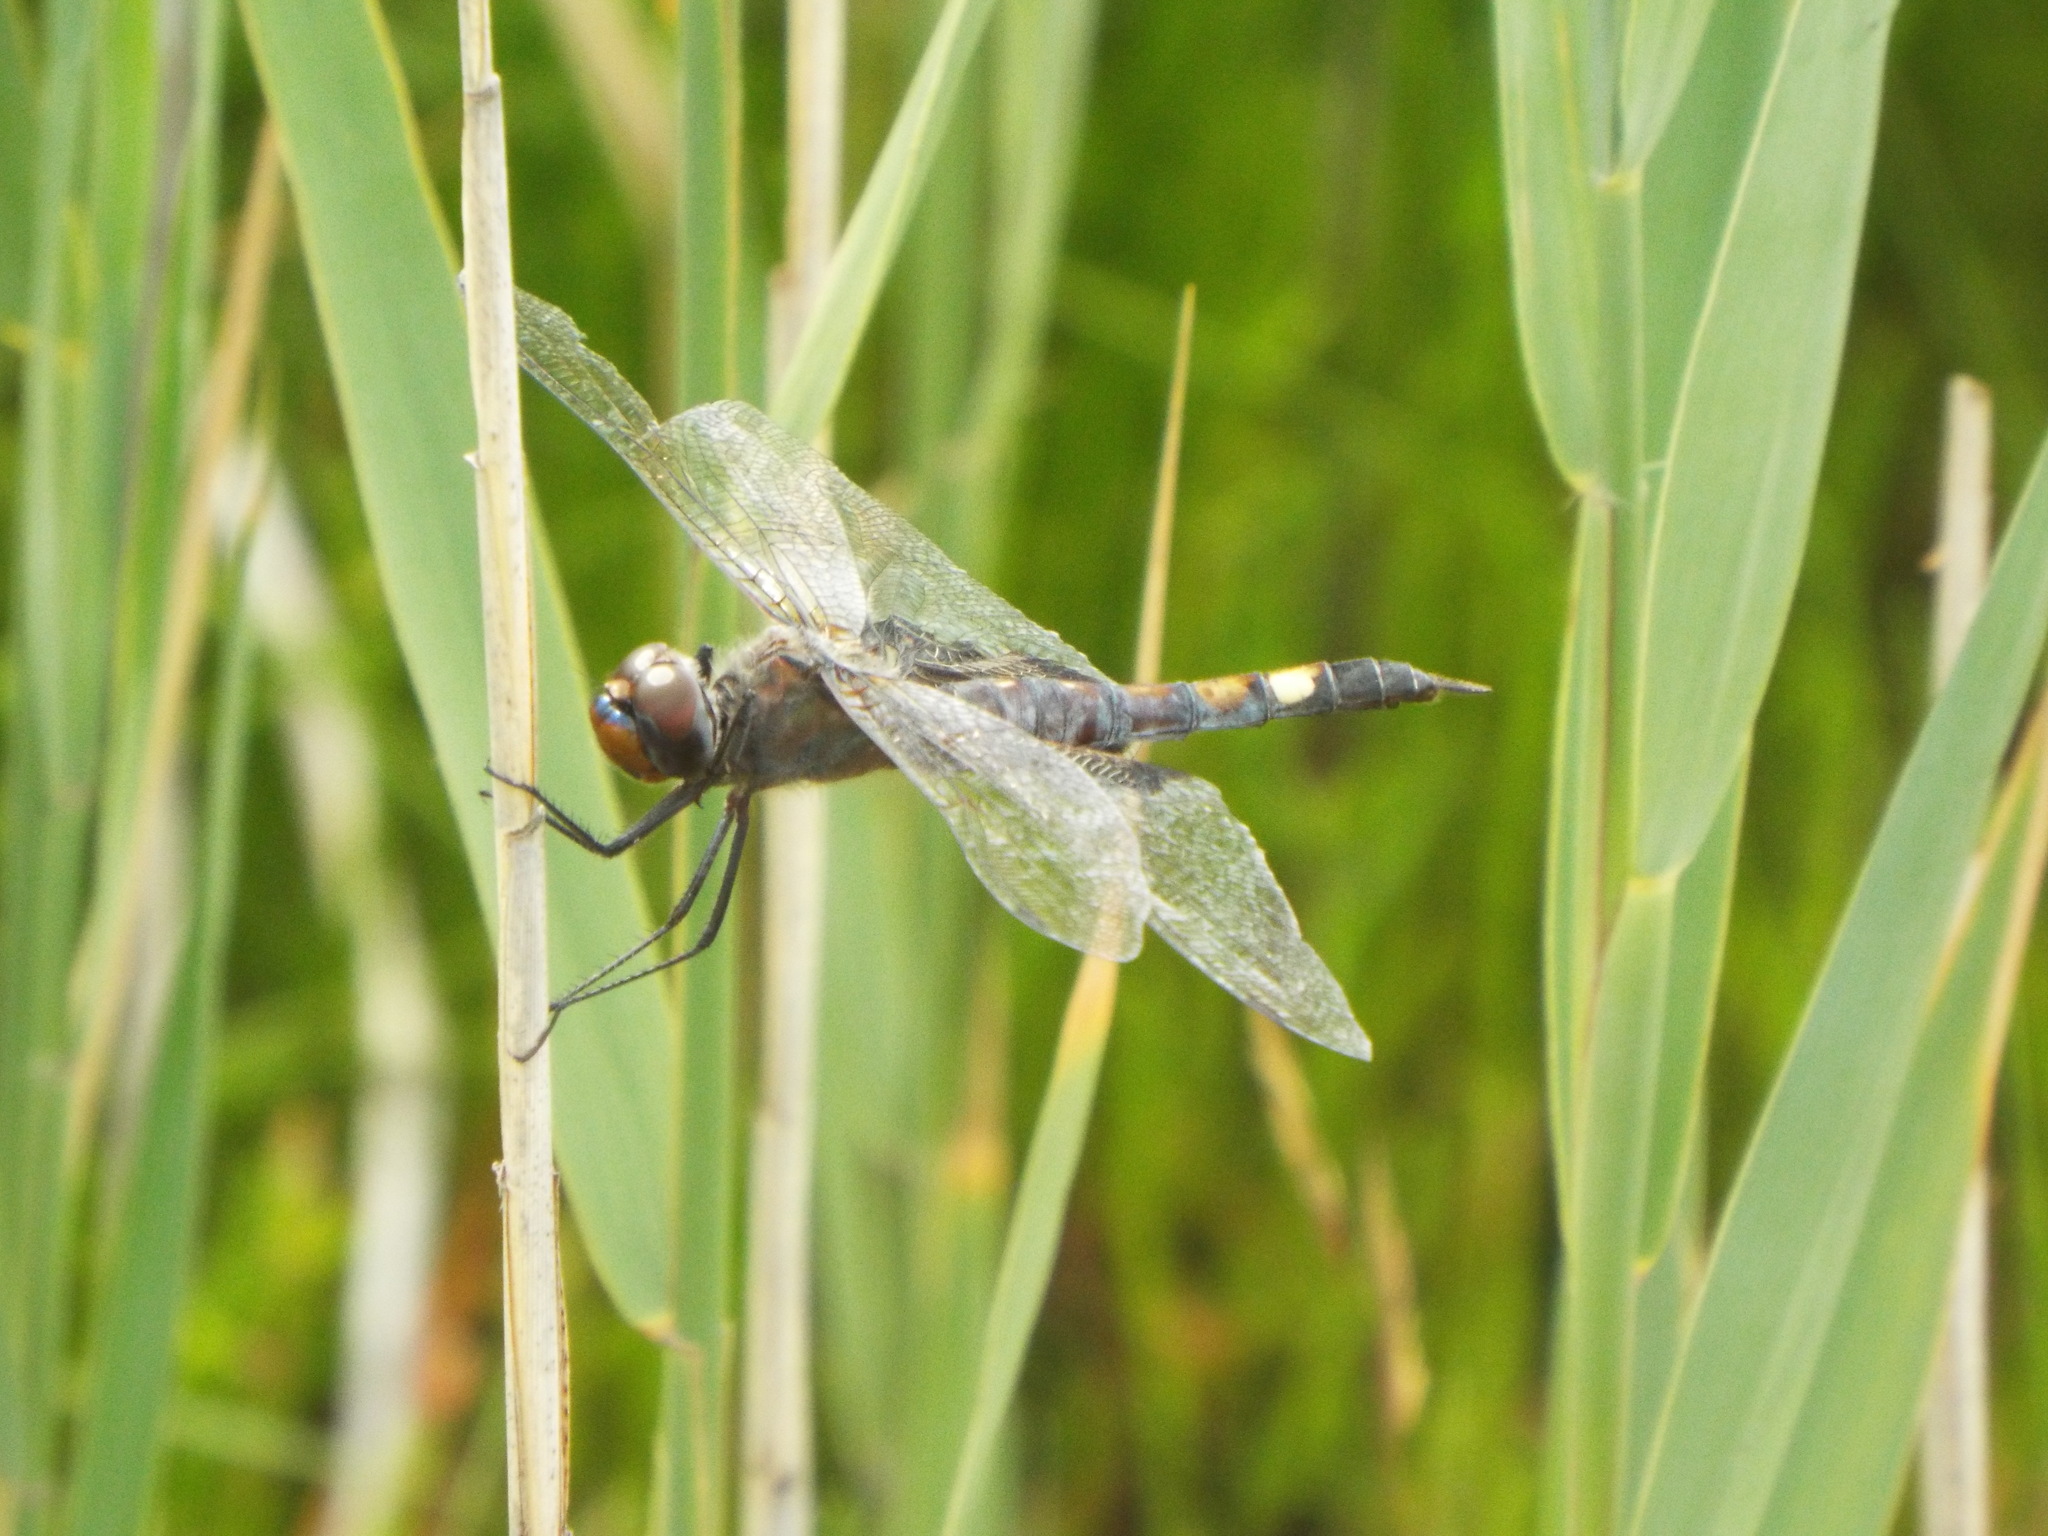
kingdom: Animalia
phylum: Arthropoda
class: Insecta
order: Odonata
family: Libellulidae
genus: Tramea
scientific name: Tramea lacerata
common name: Black saddlebags
